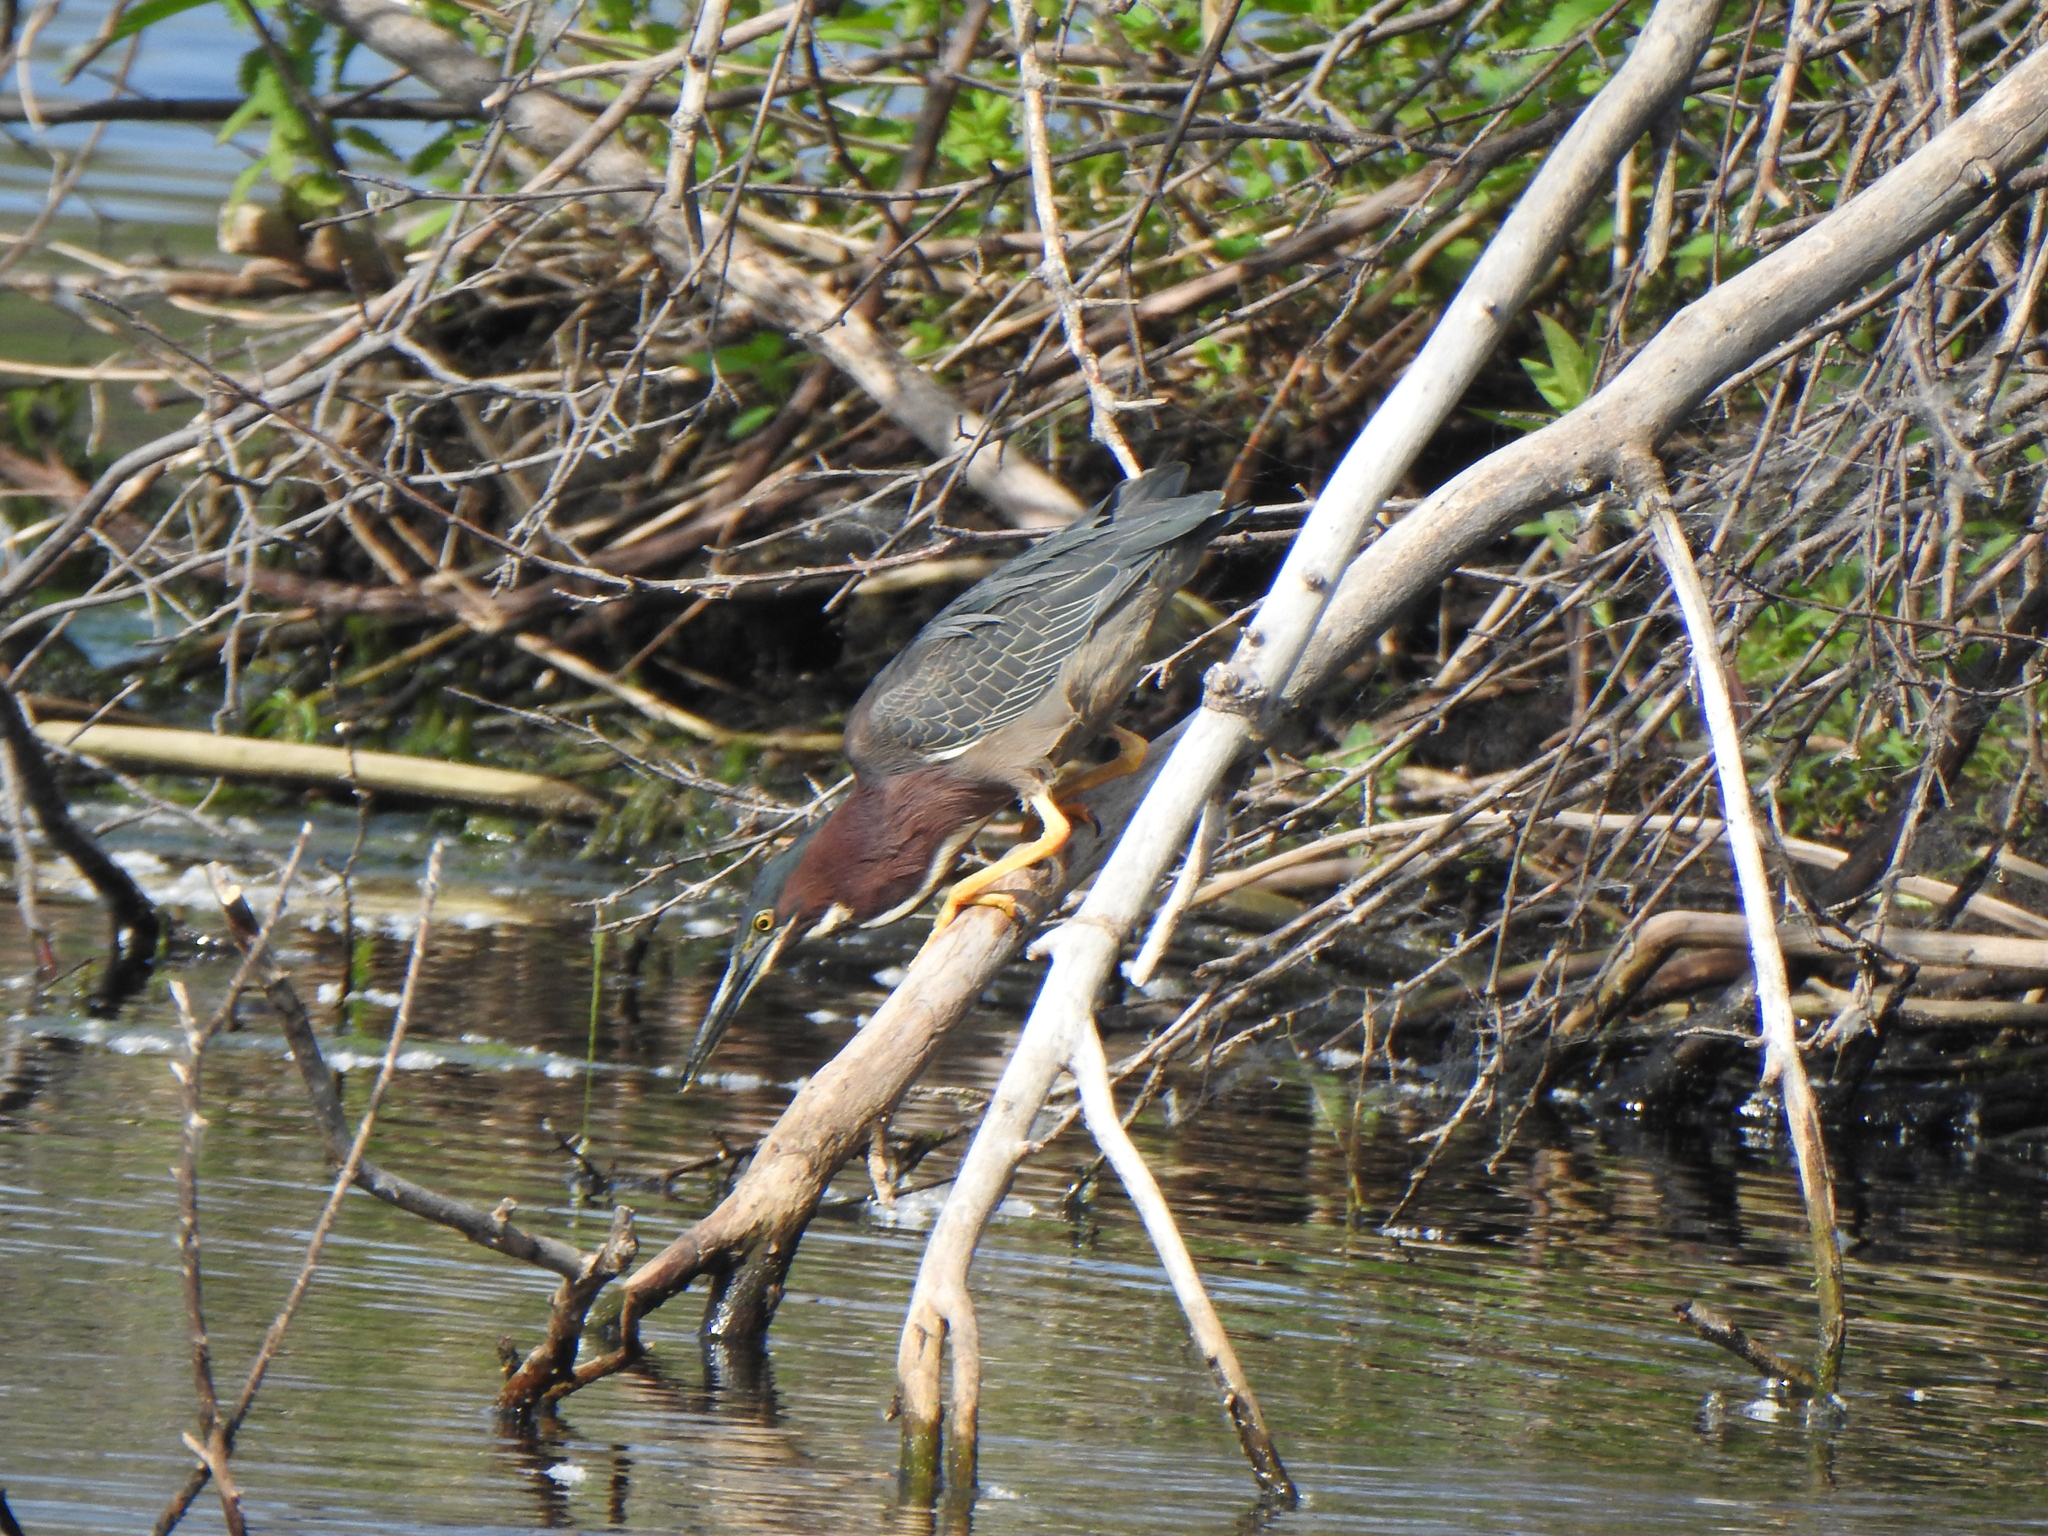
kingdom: Animalia
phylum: Chordata
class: Aves
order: Pelecaniformes
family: Ardeidae
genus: Butorides
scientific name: Butorides virescens
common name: Green heron
